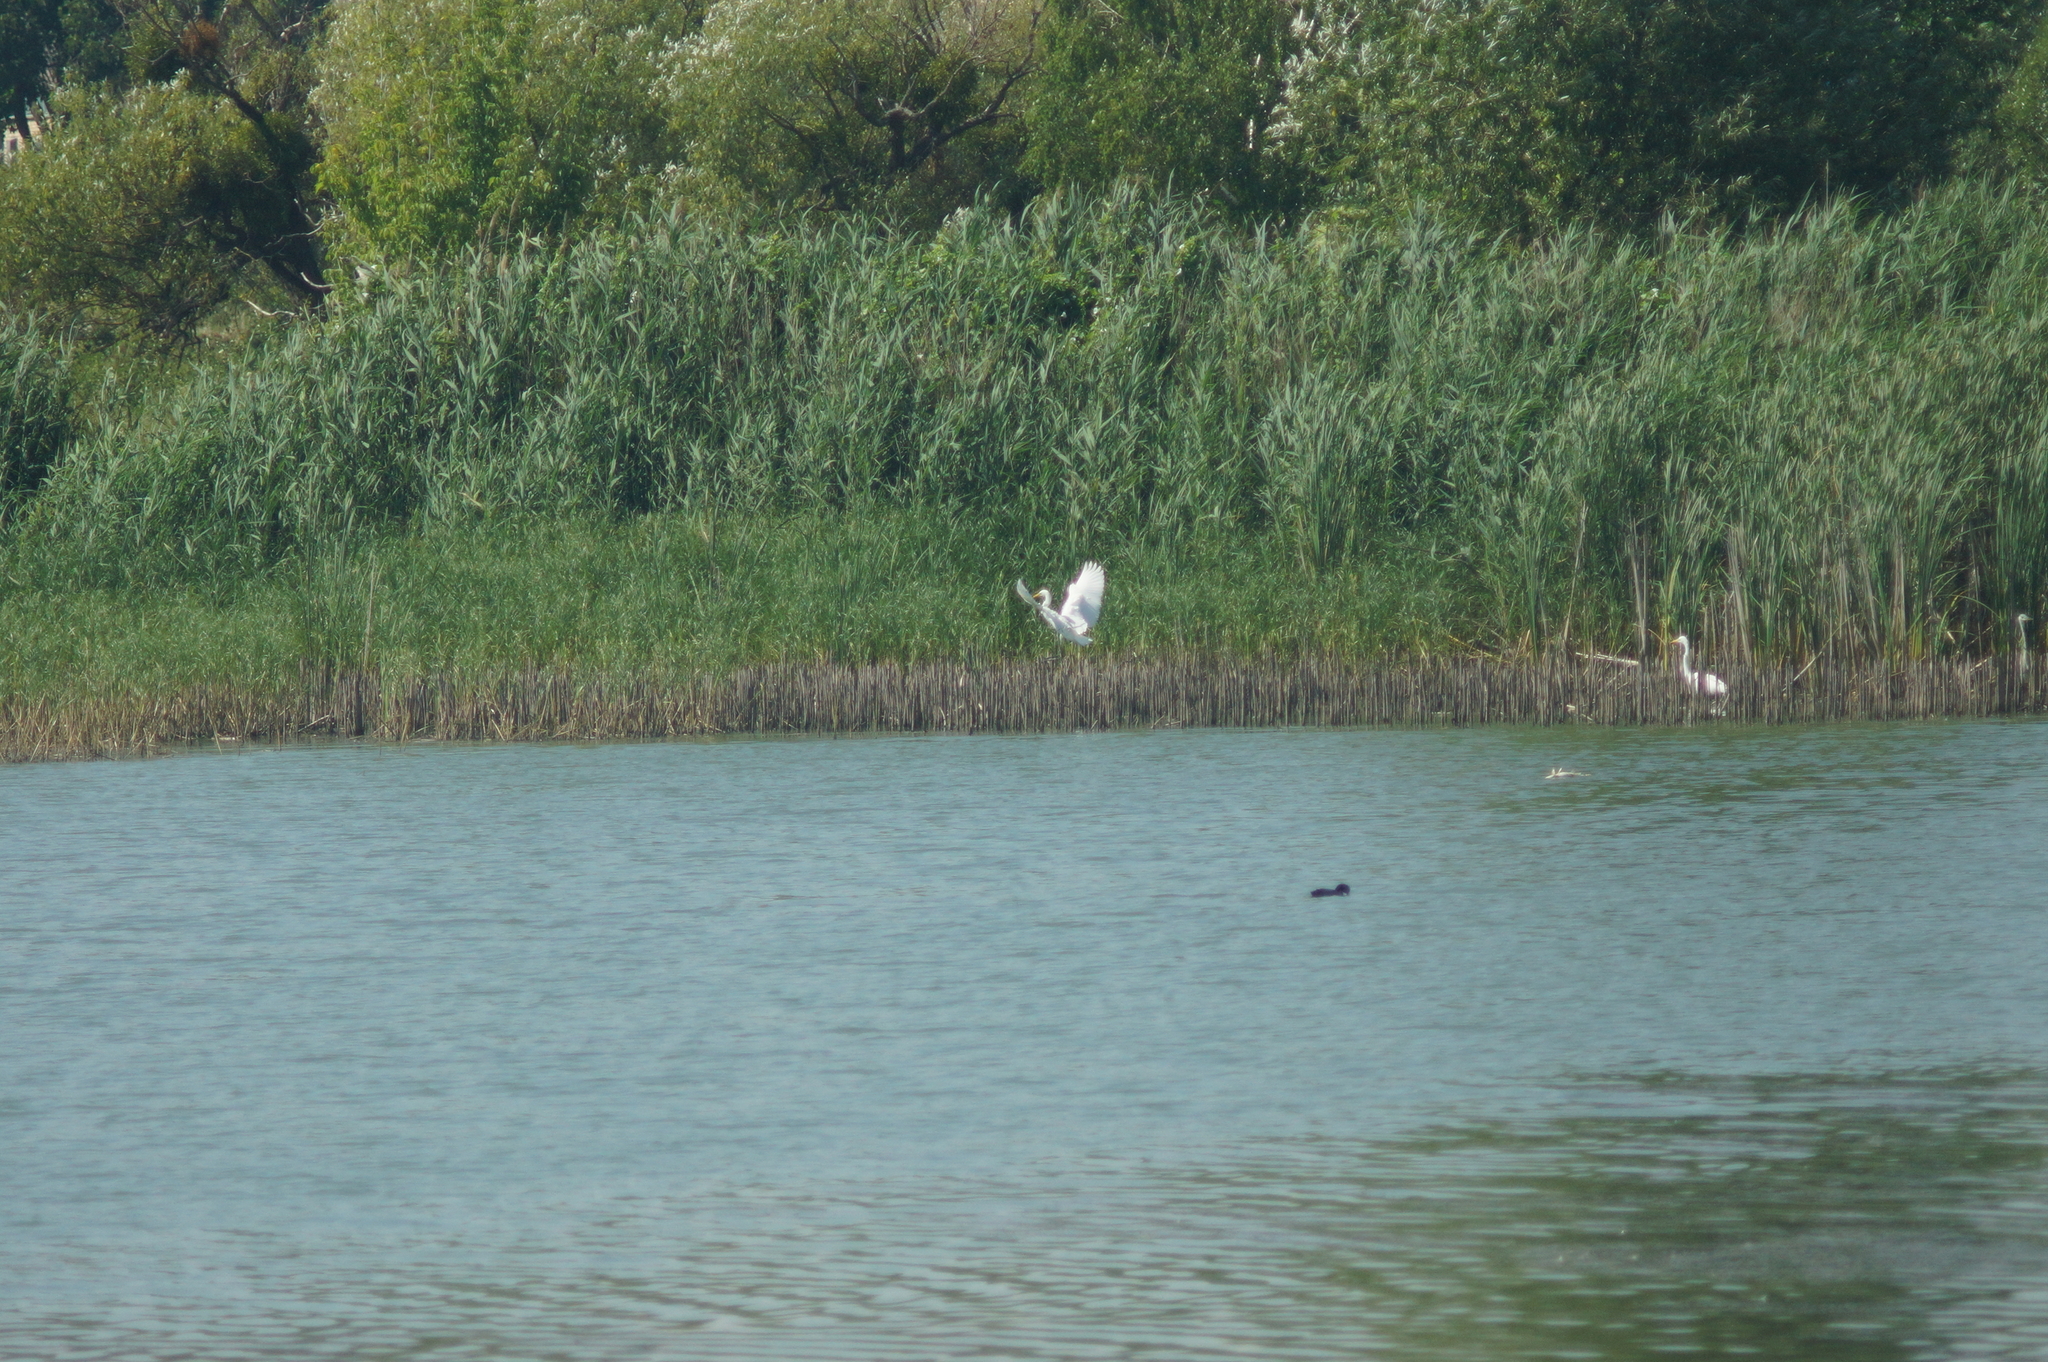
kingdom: Animalia
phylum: Chordata
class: Aves
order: Pelecaniformes
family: Ardeidae
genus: Ardea
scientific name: Ardea alba
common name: Great egret
